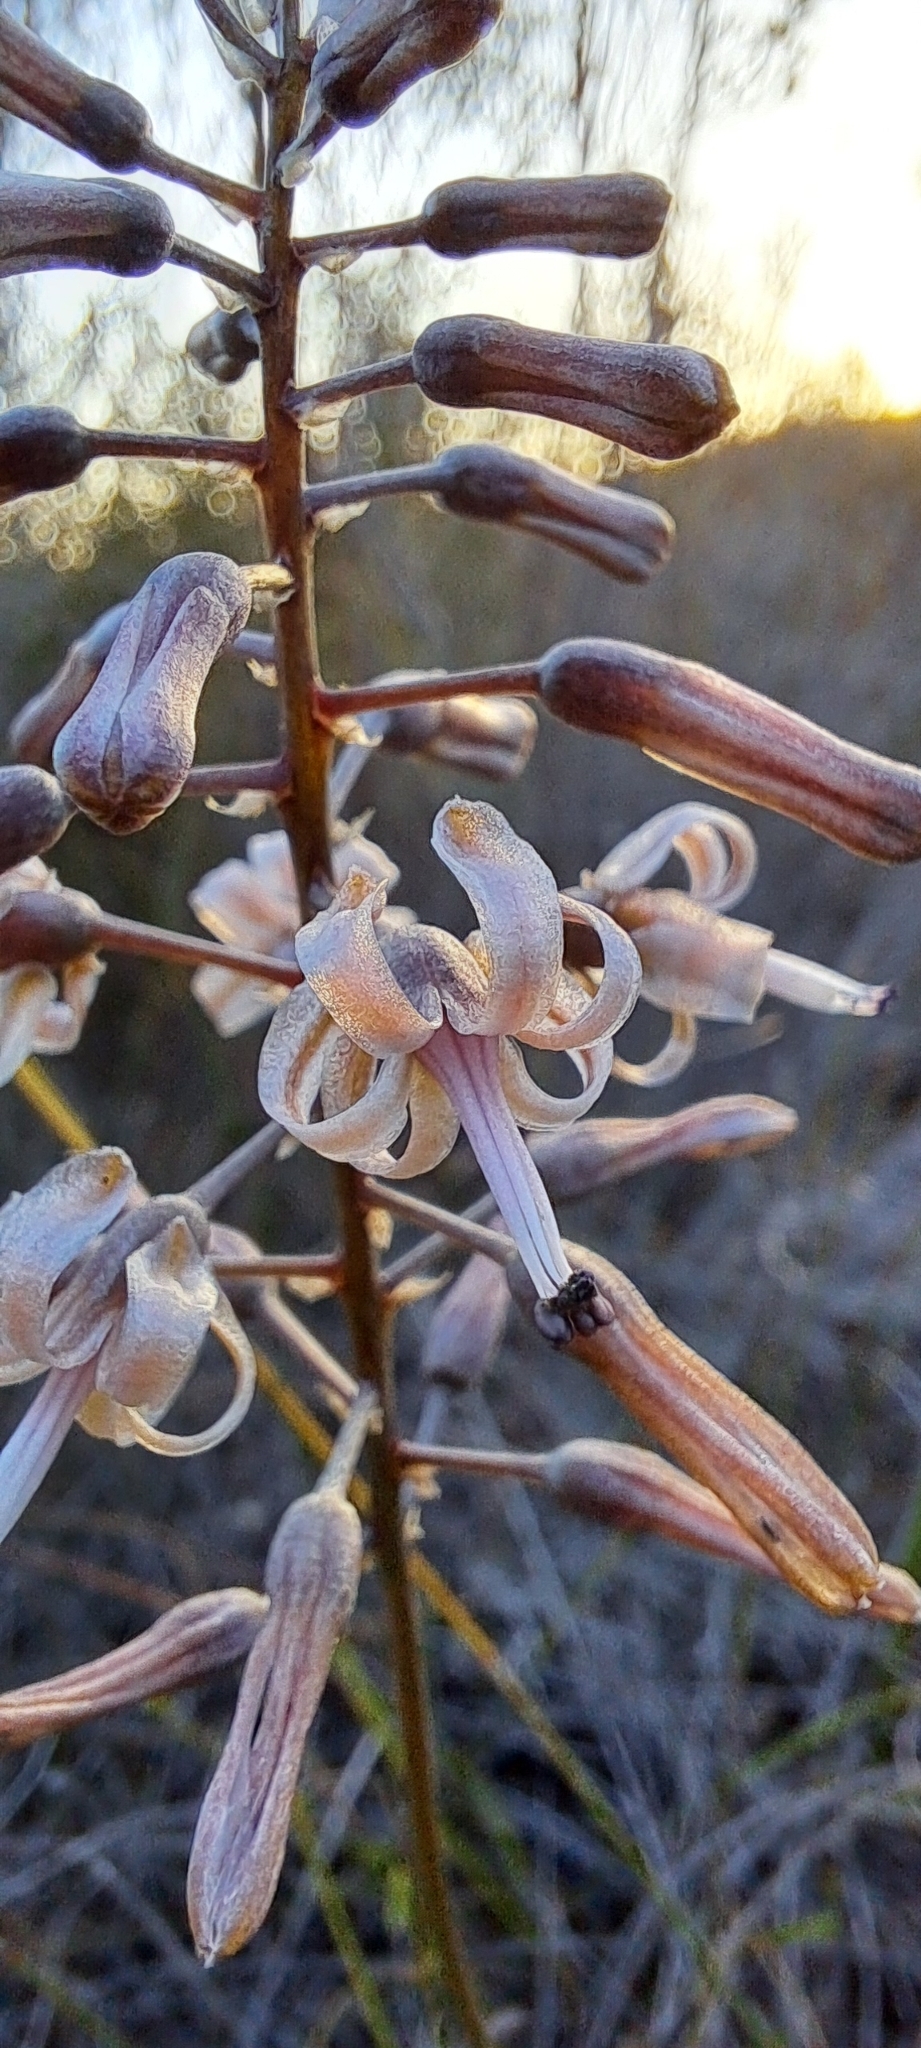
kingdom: Plantae
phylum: Tracheophyta
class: Liliopsida
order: Asparagales
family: Asparagaceae
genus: Drimia
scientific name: Drimia media
